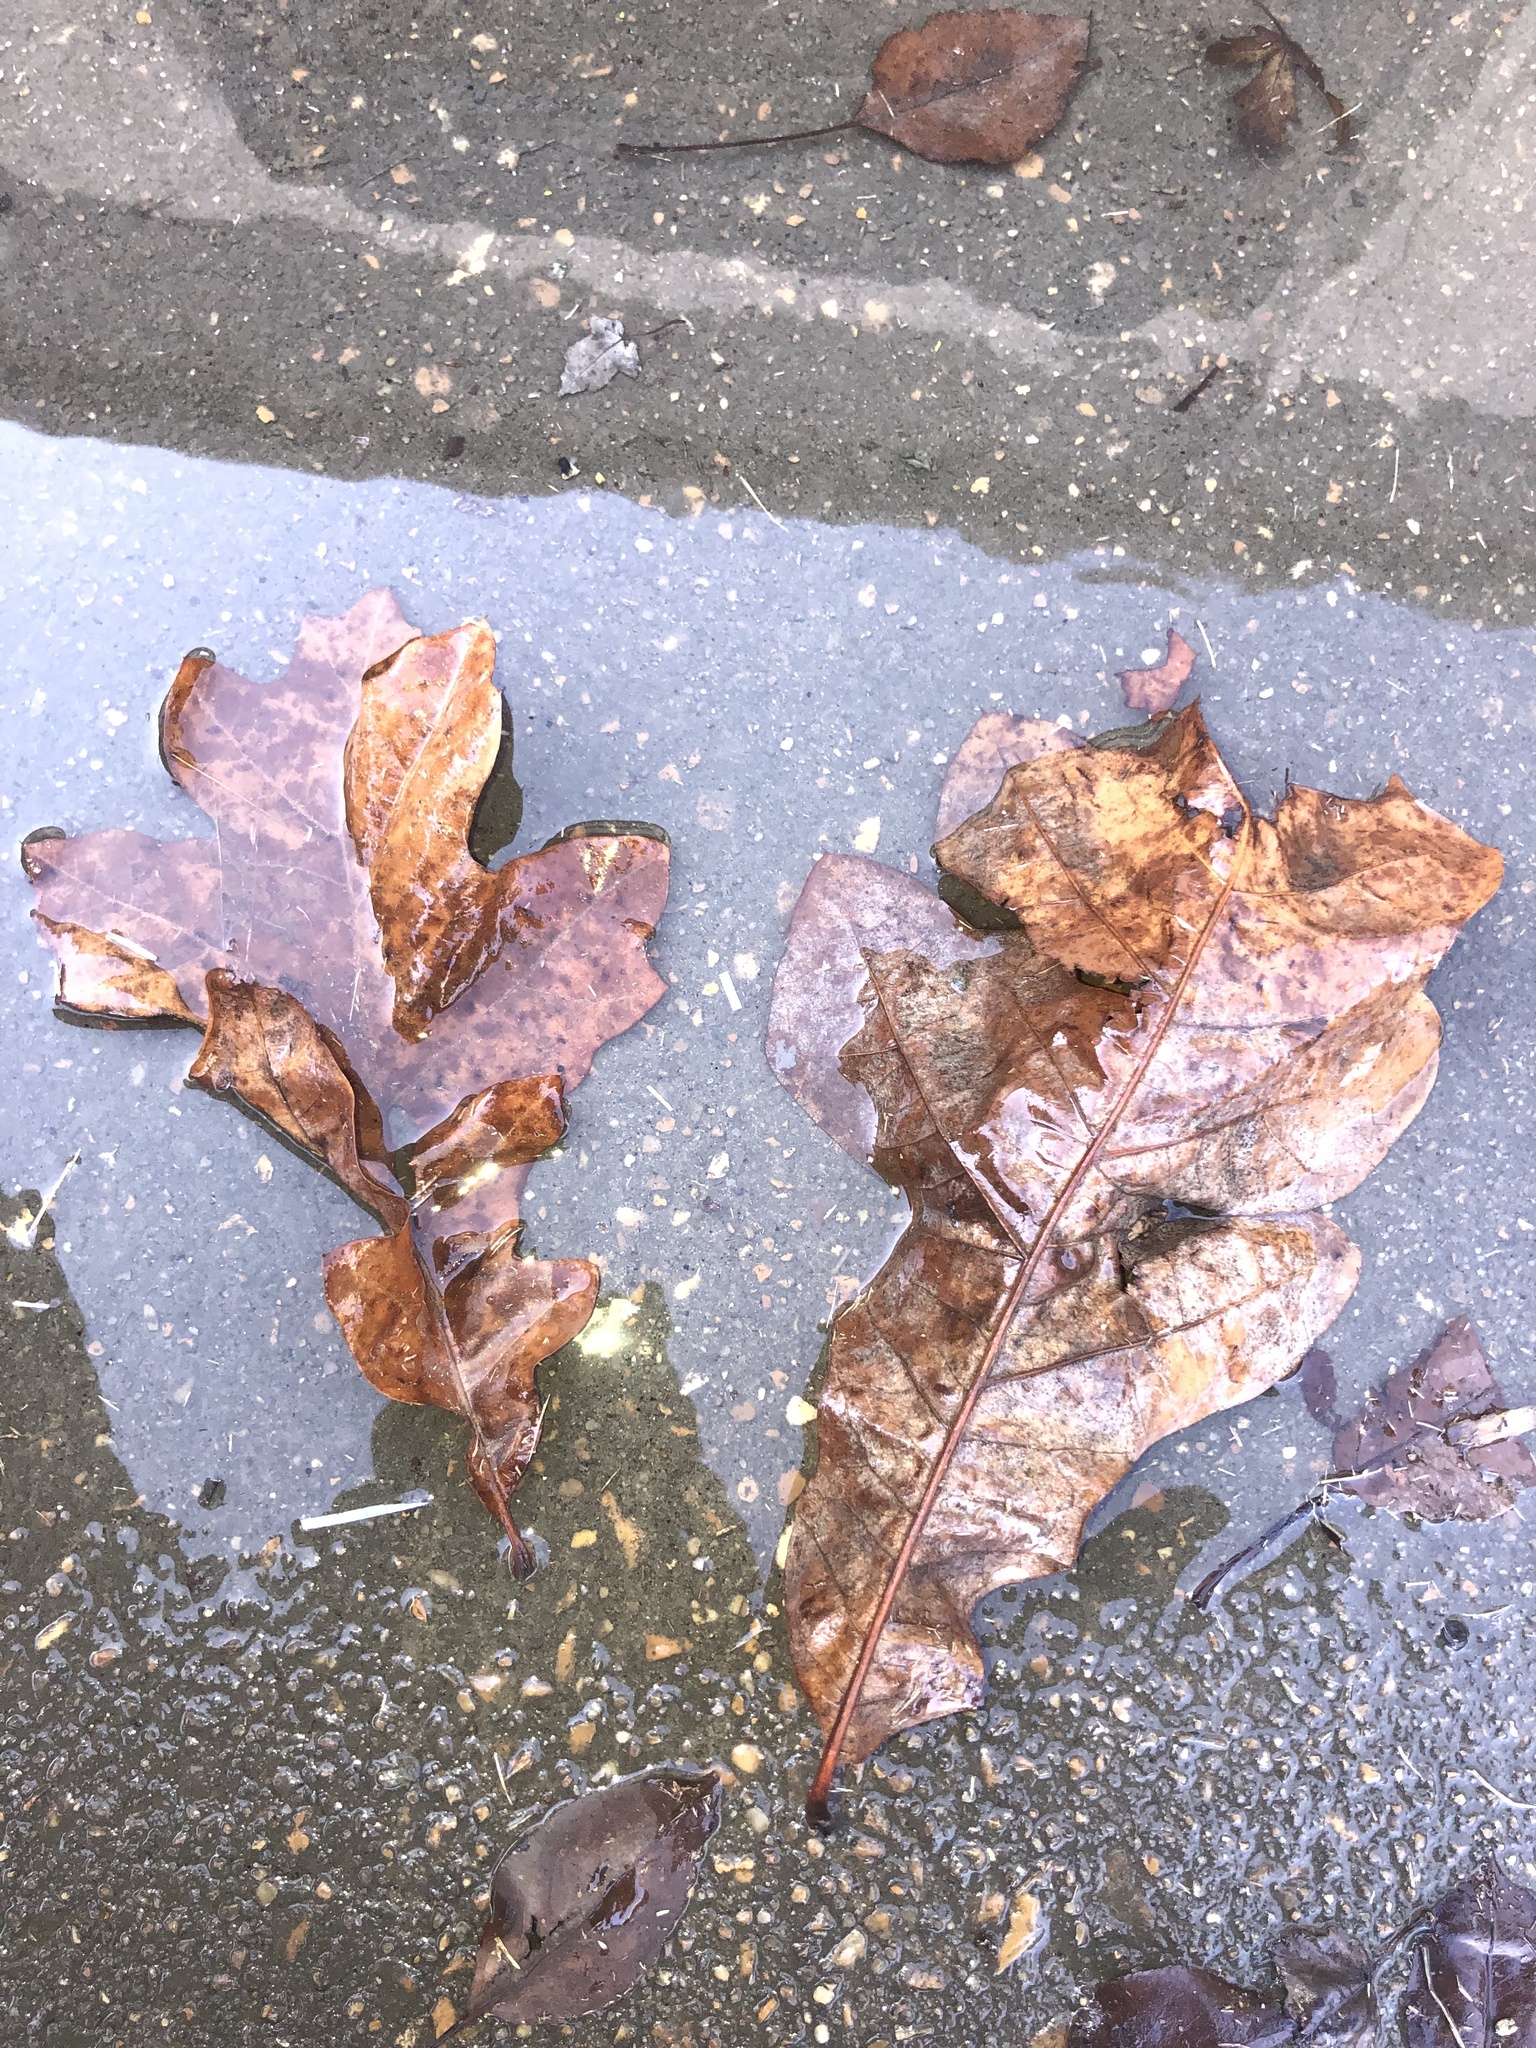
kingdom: Plantae
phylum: Tracheophyta
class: Magnoliopsida
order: Fagales
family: Fagaceae
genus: Quercus
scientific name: Quercus stellata
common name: Post oak
